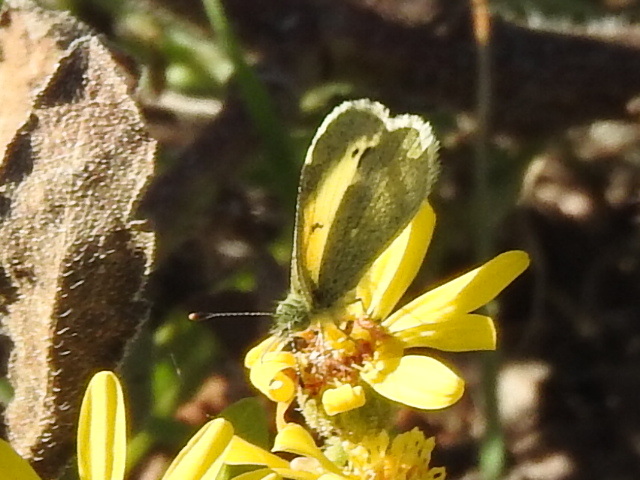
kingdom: Animalia
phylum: Arthropoda
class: Insecta
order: Lepidoptera
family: Pieridae
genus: Nathalis
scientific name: Nathalis iole
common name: Dainty sulphur
